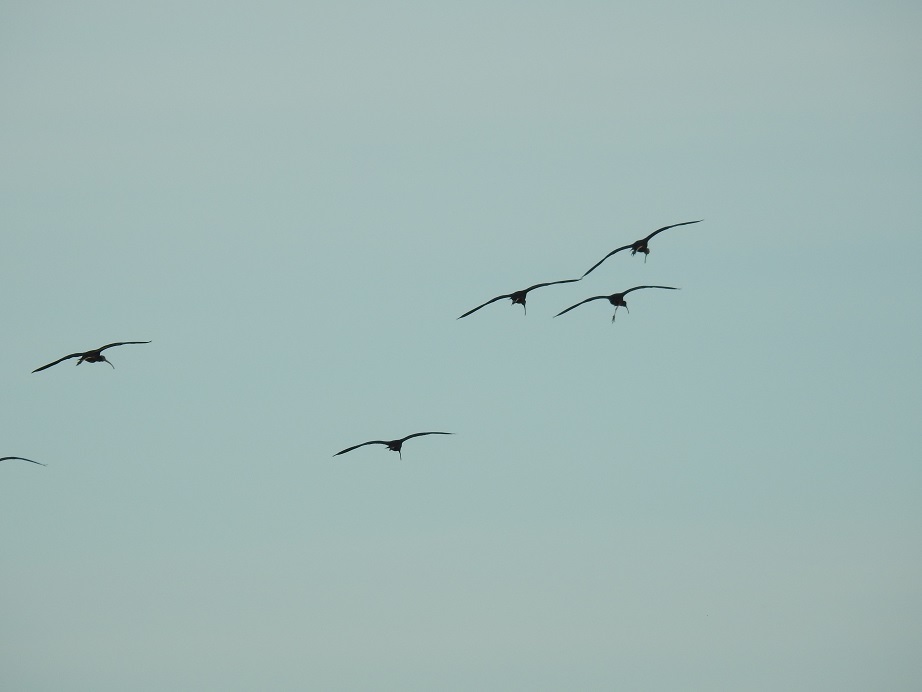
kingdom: Animalia
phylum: Chordata
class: Aves
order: Pelecaniformes
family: Threskiornithidae
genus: Plegadis
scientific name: Plegadis falcinellus
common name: Glossy ibis
